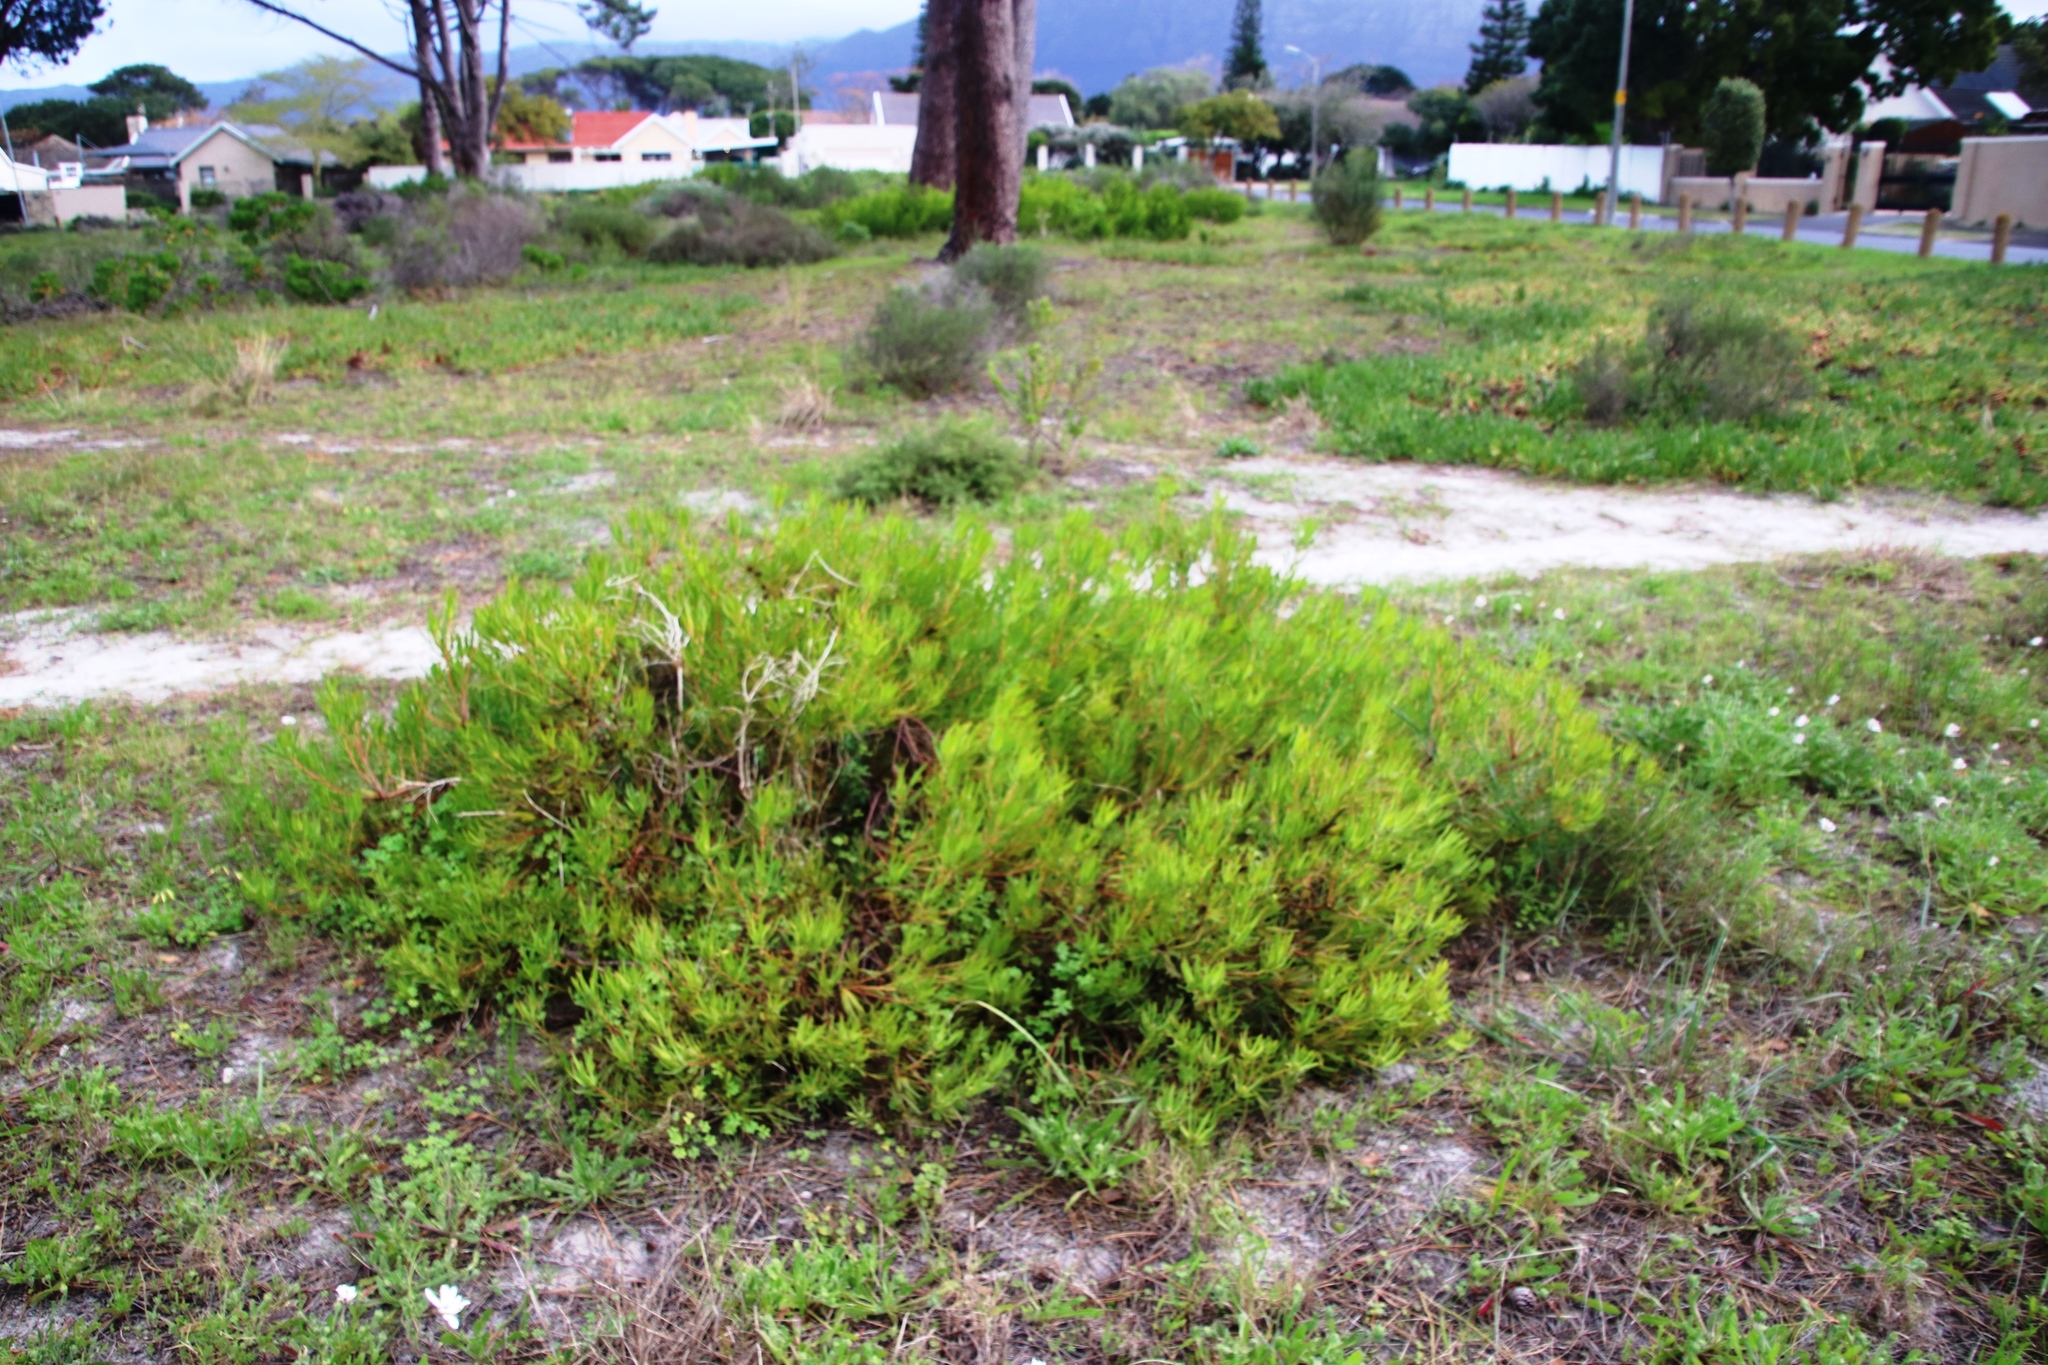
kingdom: Plantae
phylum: Tracheophyta
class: Magnoliopsida
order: Proteales
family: Proteaceae
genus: Leucadendron
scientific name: Leucadendron salignum
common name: Common sunshine conebush
